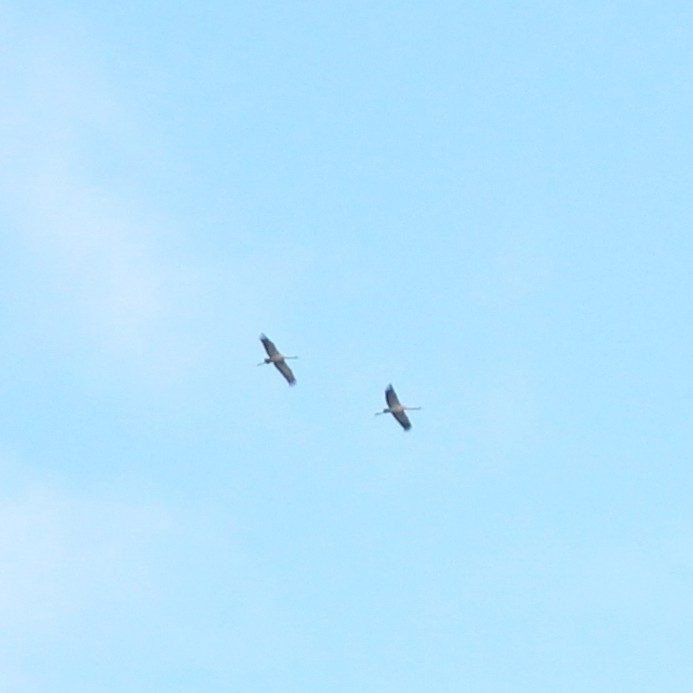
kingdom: Animalia
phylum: Chordata
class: Aves
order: Gruiformes
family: Gruidae
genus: Grus
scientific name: Grus grus
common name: Common crane
